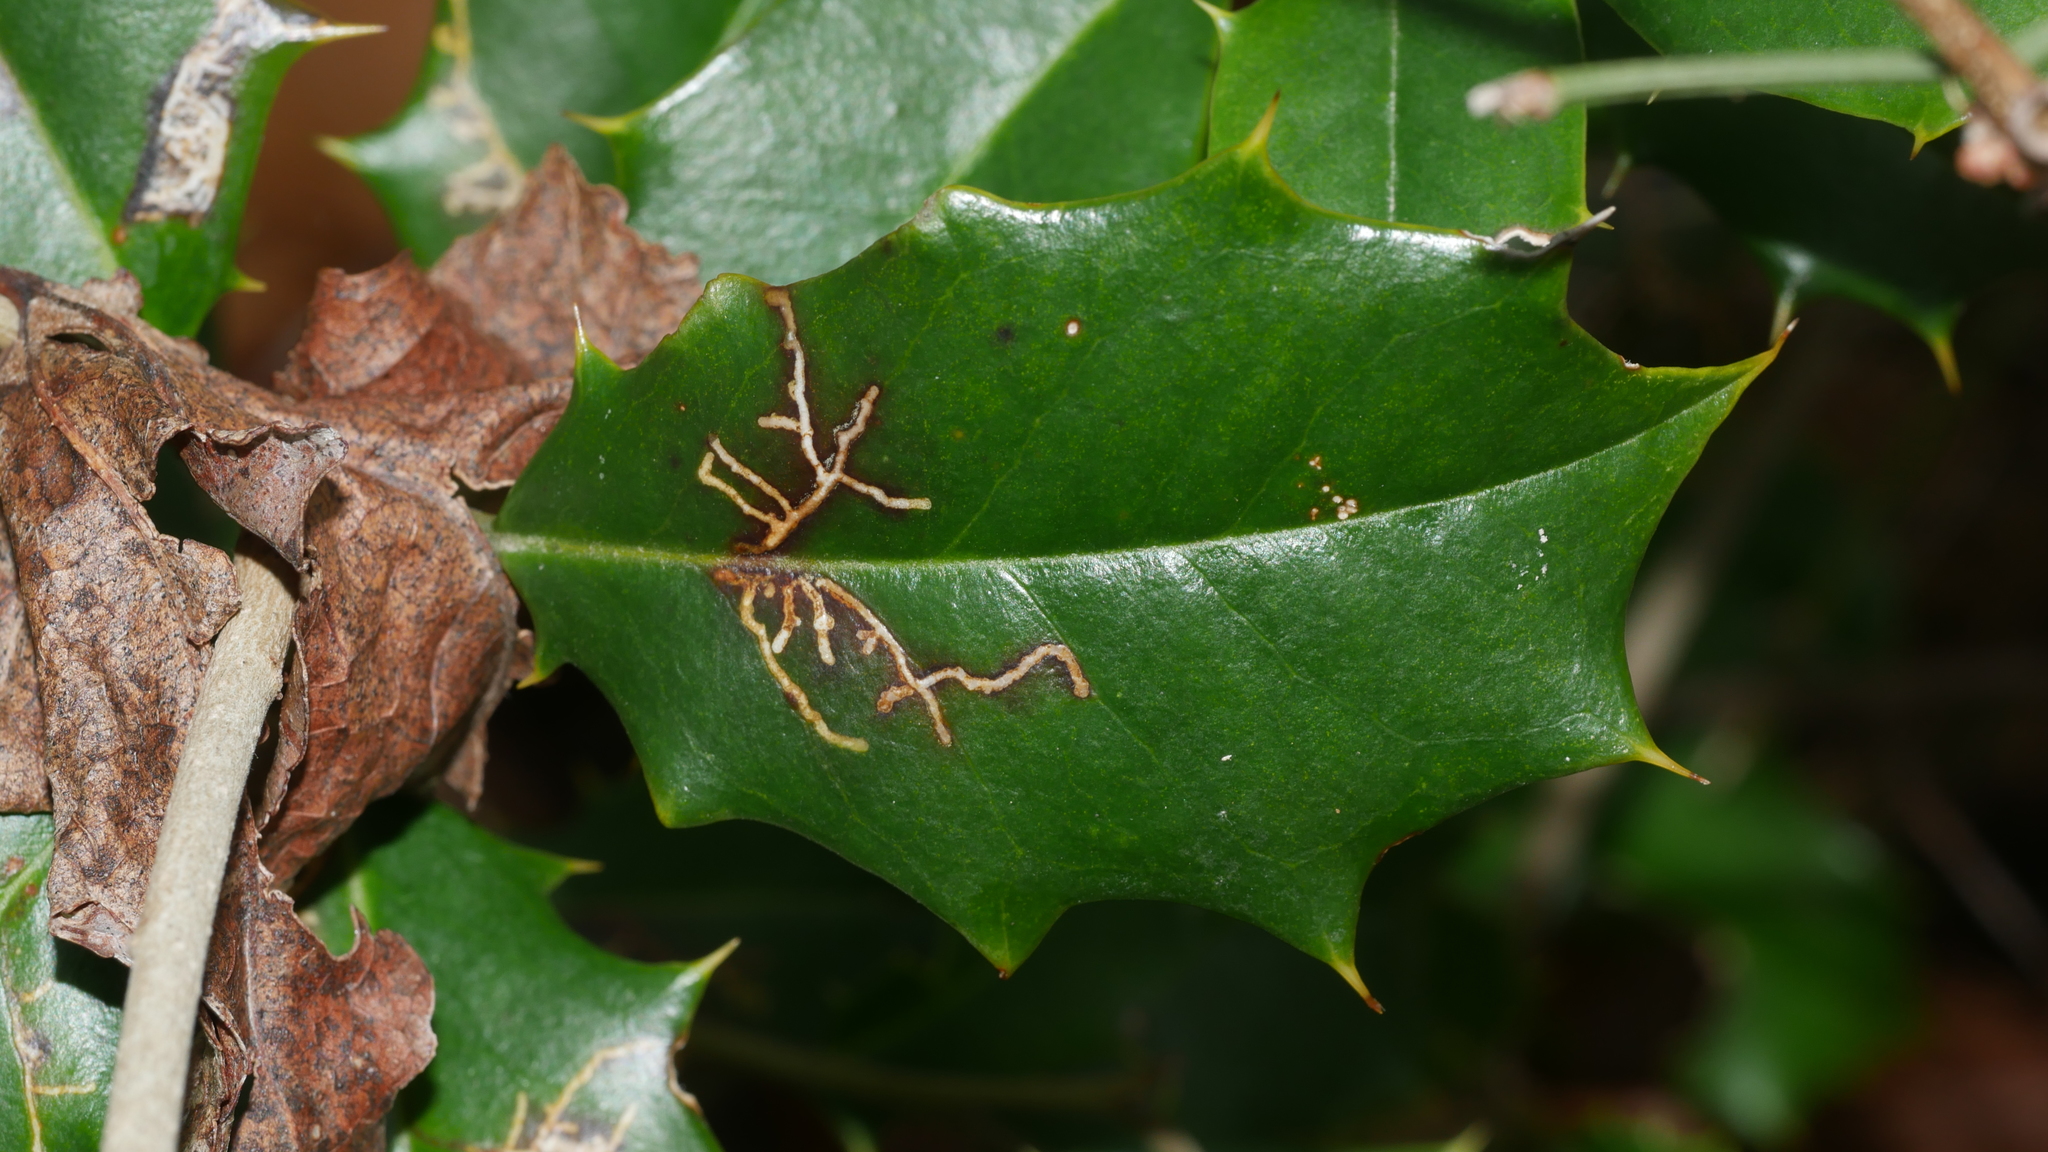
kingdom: Animalia
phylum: Arthropoda
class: Insecta
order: Lepidoptera
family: Tortricidae
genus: Rhopobota
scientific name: Rhopobota
